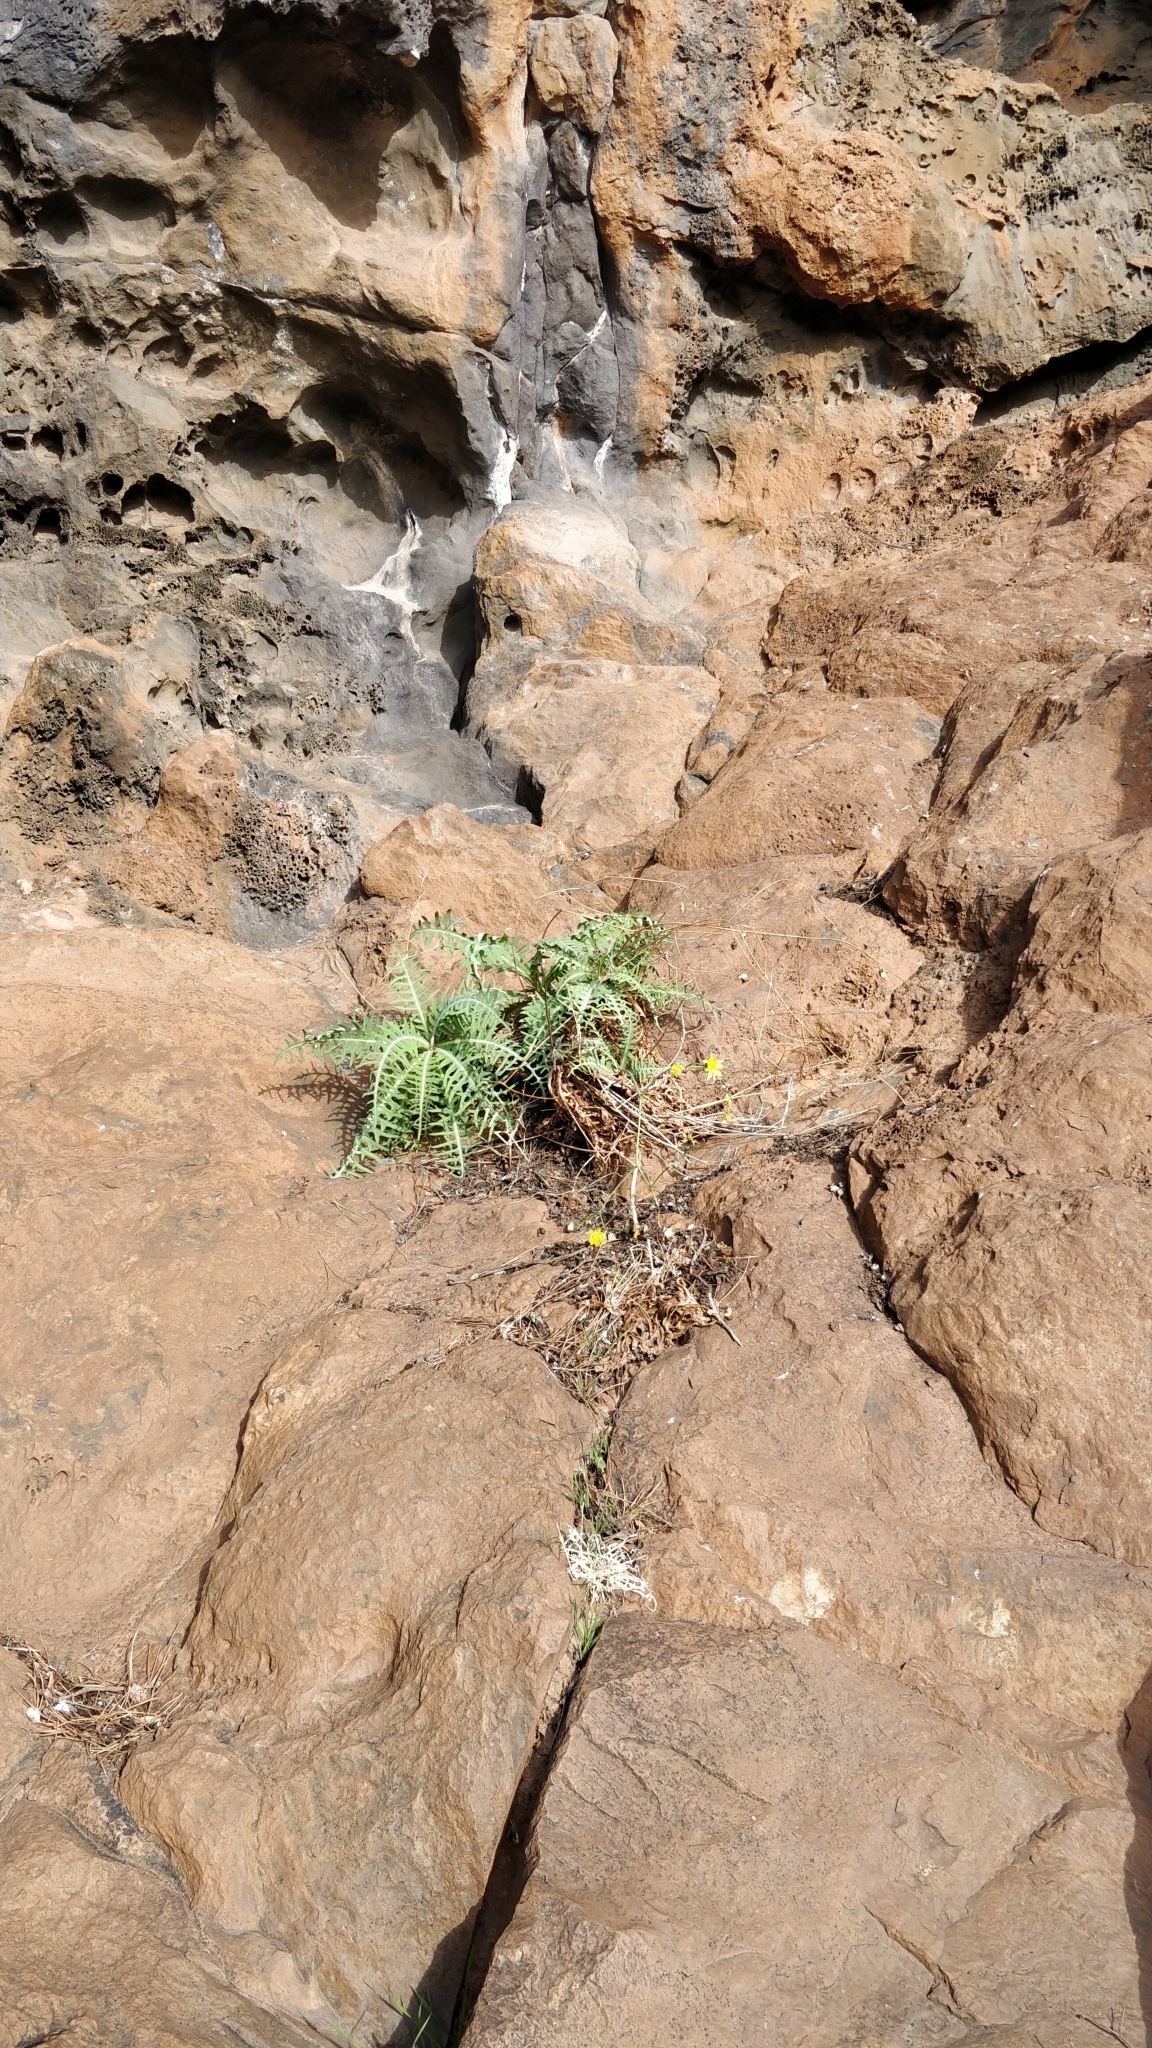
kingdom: Plantae
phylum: Tracheophyta
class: Magnoliopsida
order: Asterales
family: Asteraceae
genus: Sonchus
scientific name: Sonchus ustulatus
